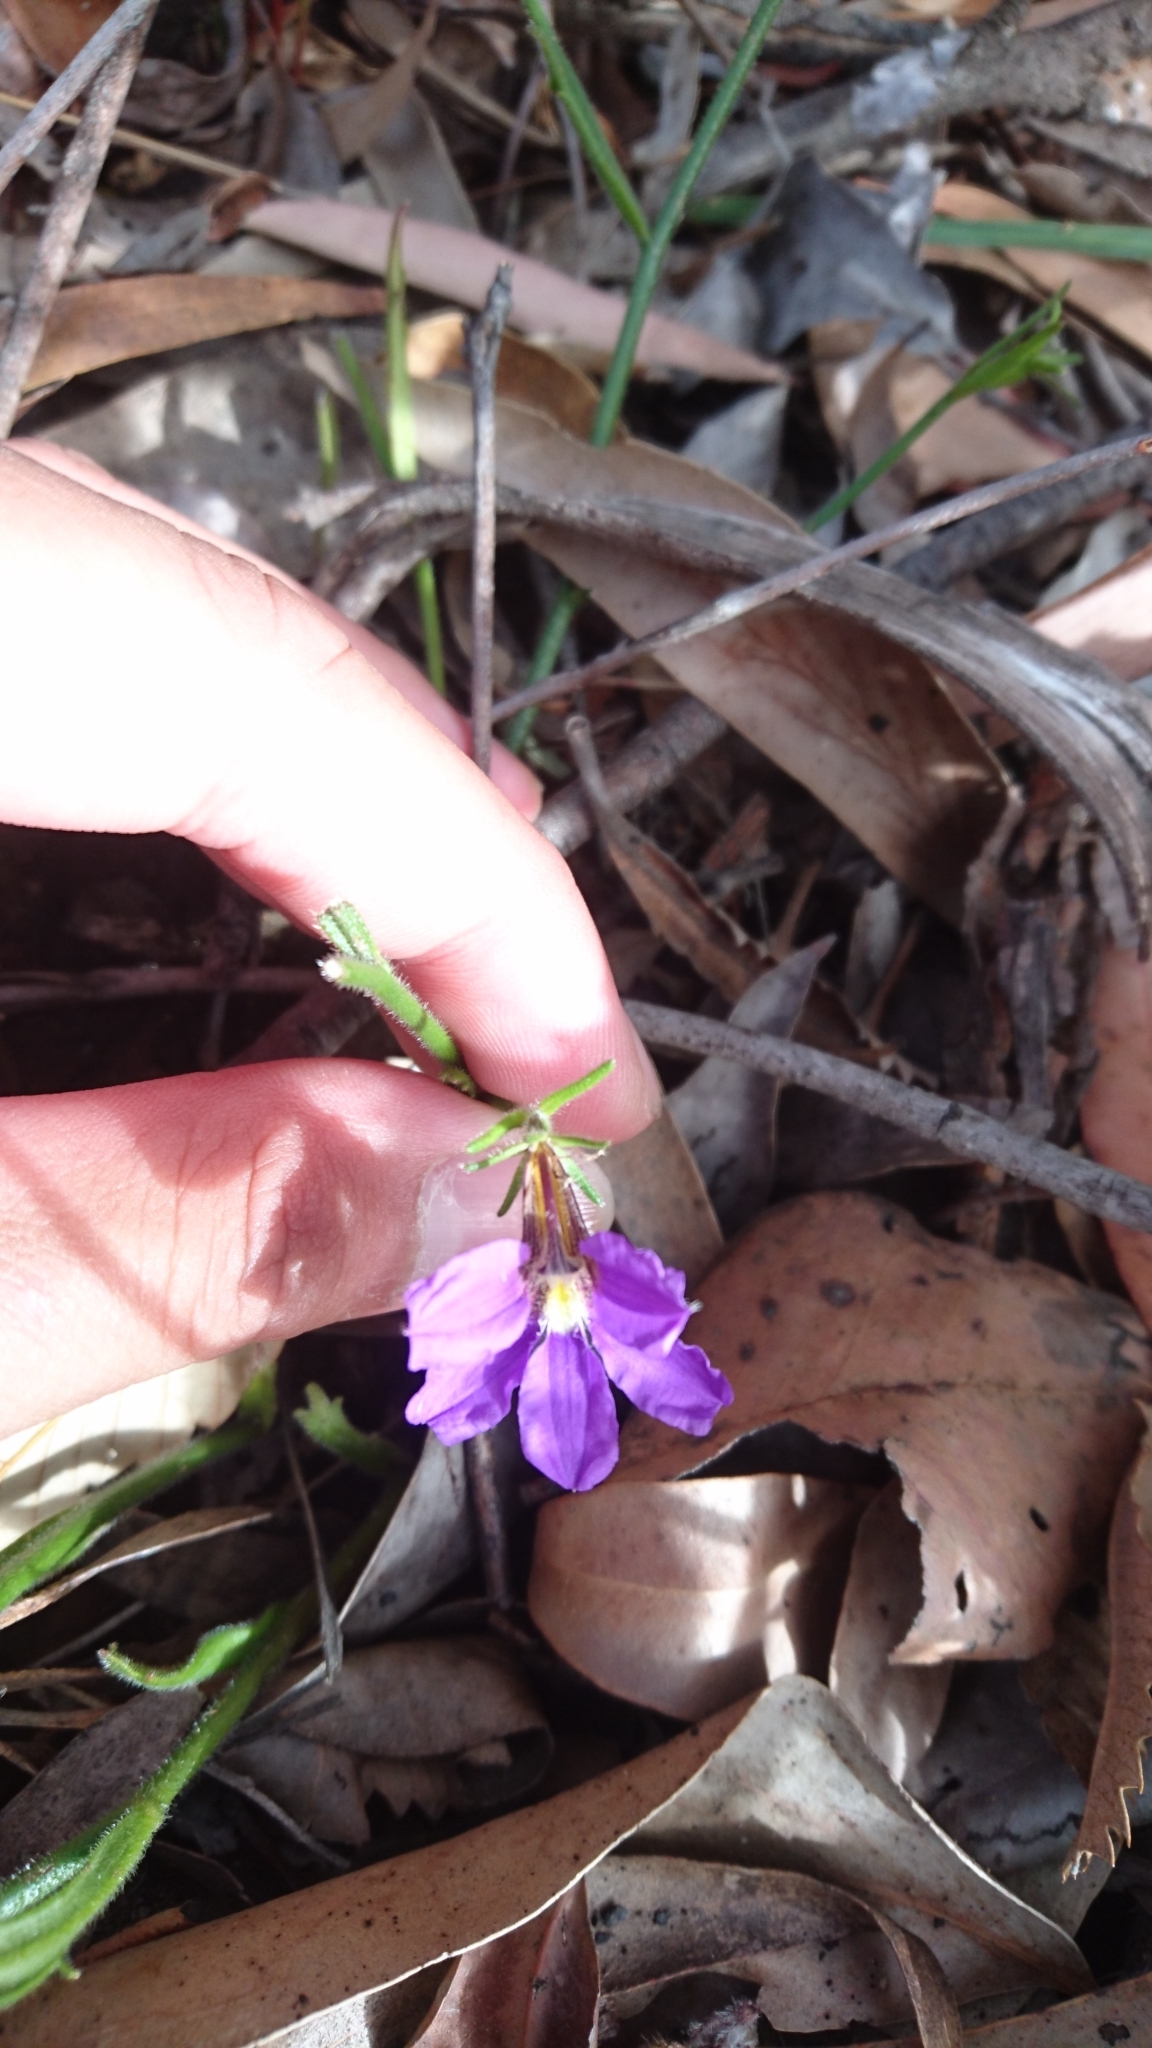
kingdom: Plantae
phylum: Tracheophyta
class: Magnoliopsida
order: Asterales
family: Goodeniaceae
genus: Scaevola
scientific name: Scaevola ramosissima
